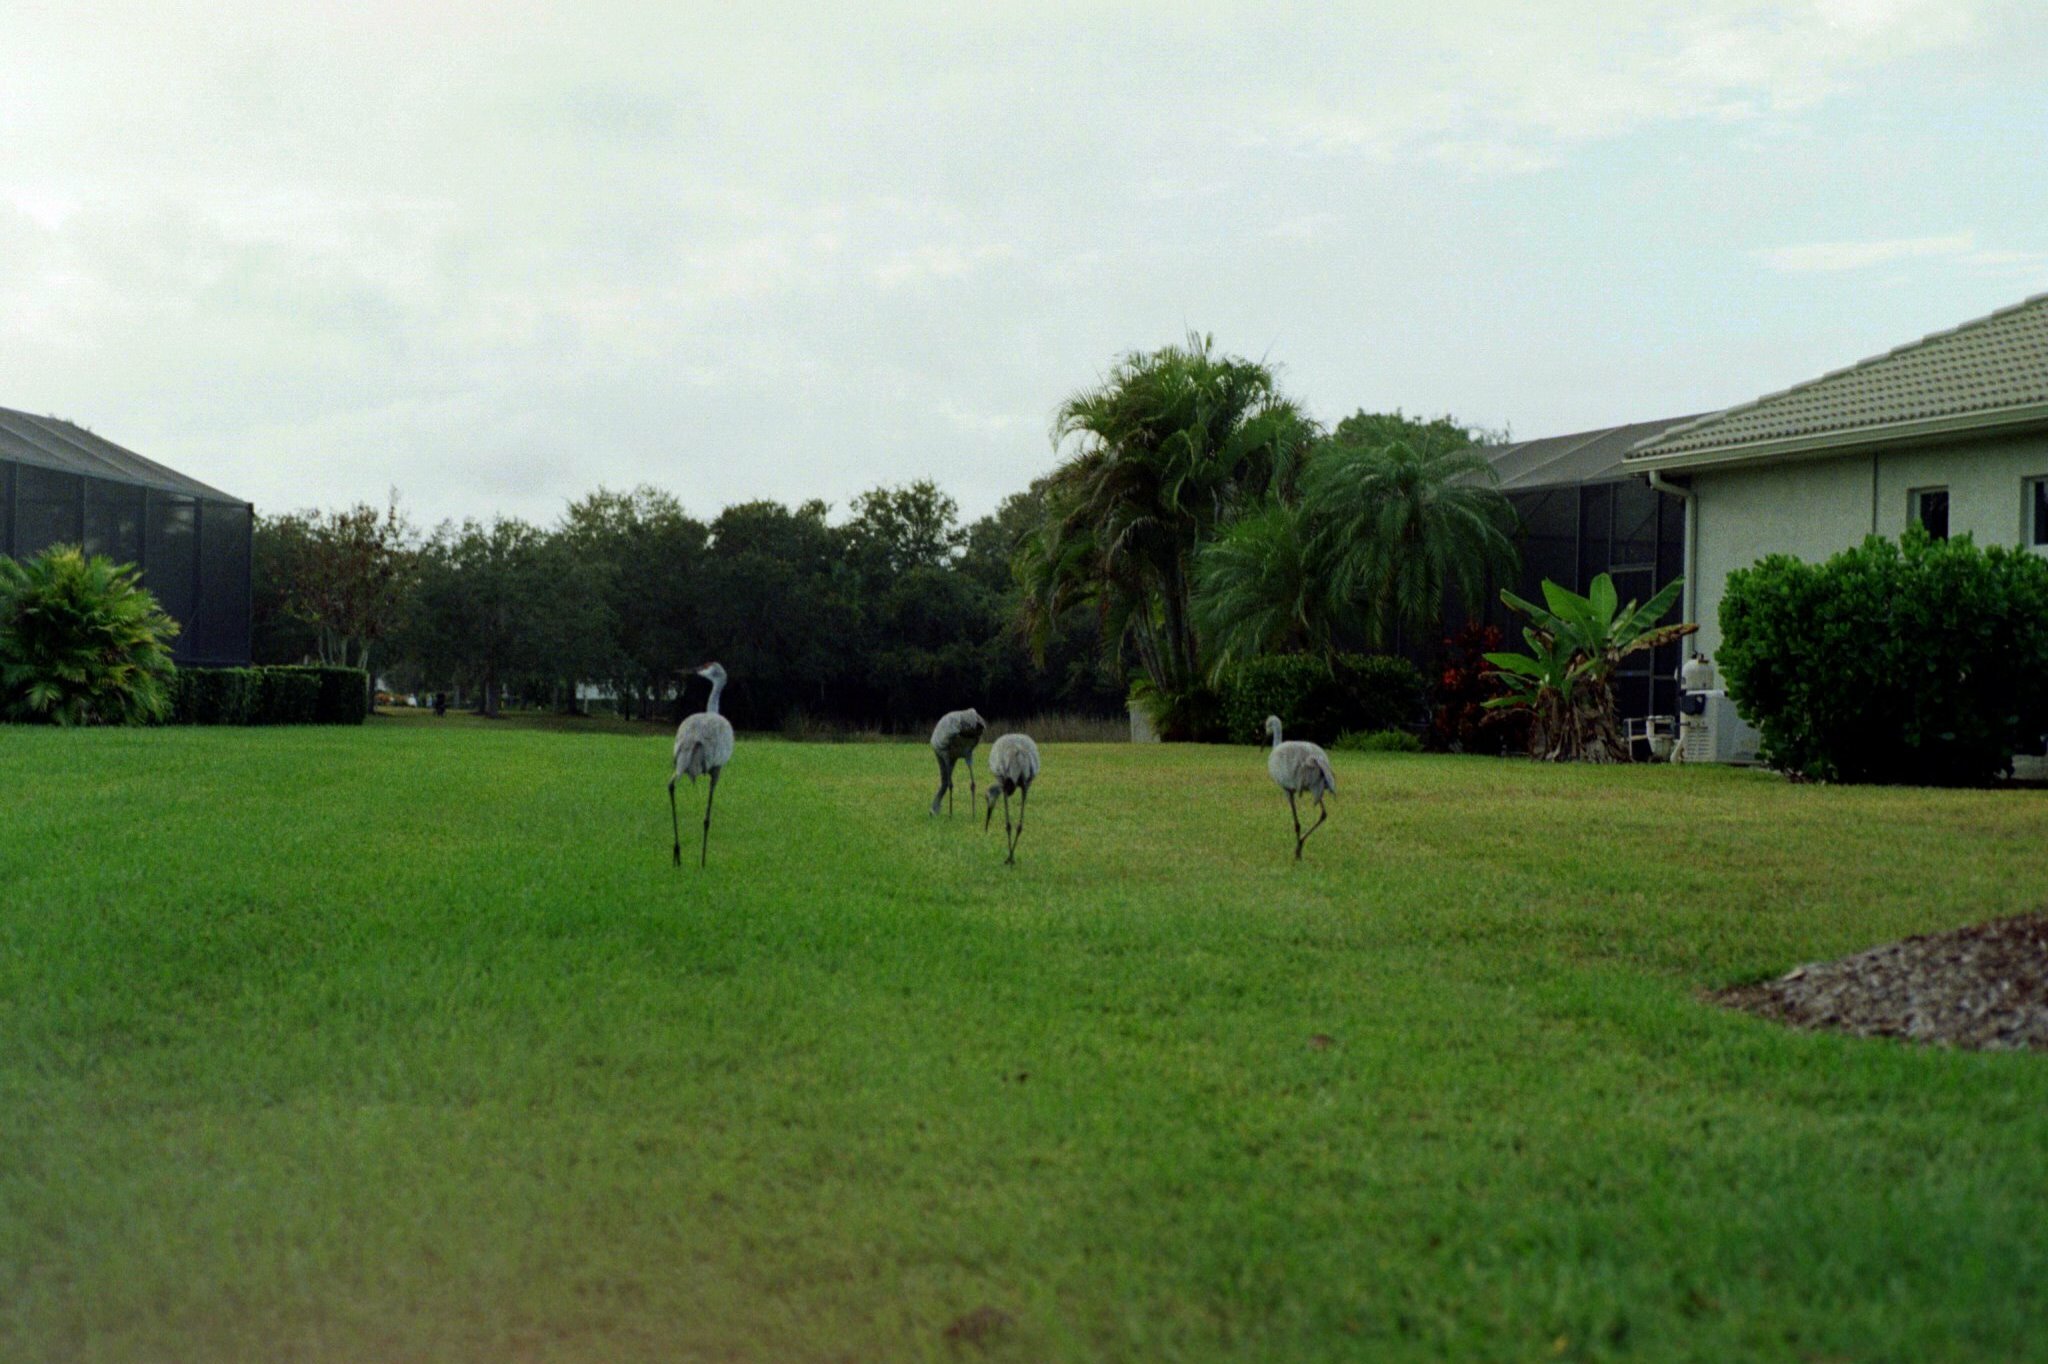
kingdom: Animalia
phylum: Chordata
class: Aves
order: Gruiformes
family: Gruidae
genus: Grus
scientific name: Grus canadensis
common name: Sandhill crane
